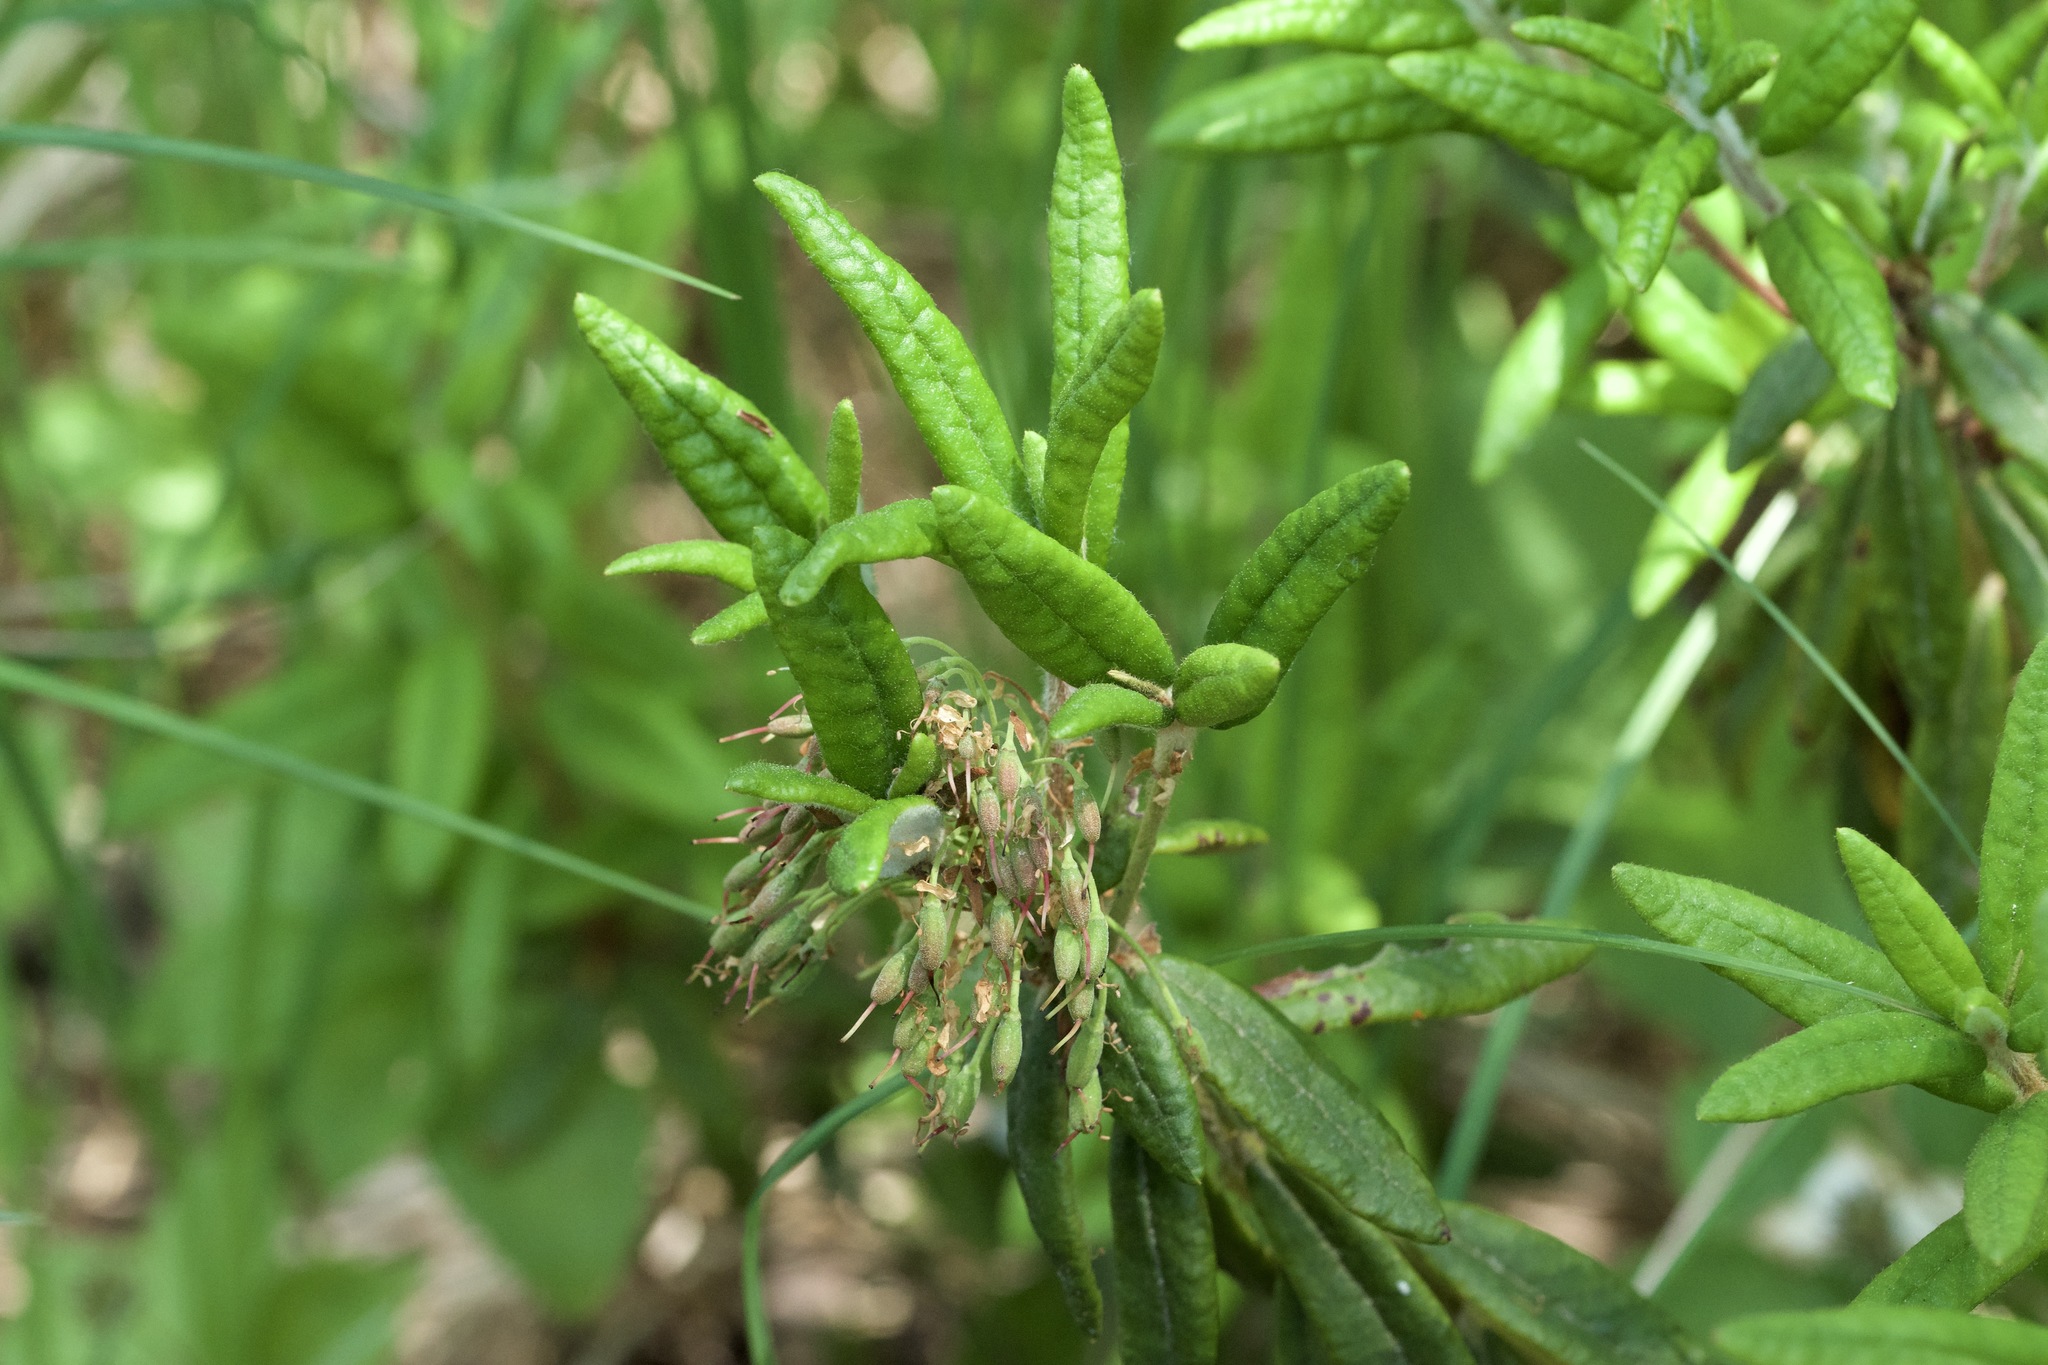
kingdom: Plantae
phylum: Tracheophyta
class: Magnoliopsida
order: Ericales
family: Ericaceae
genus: Rhododendron
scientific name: Rhododendron groenlandicum
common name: Bog labrador tea
